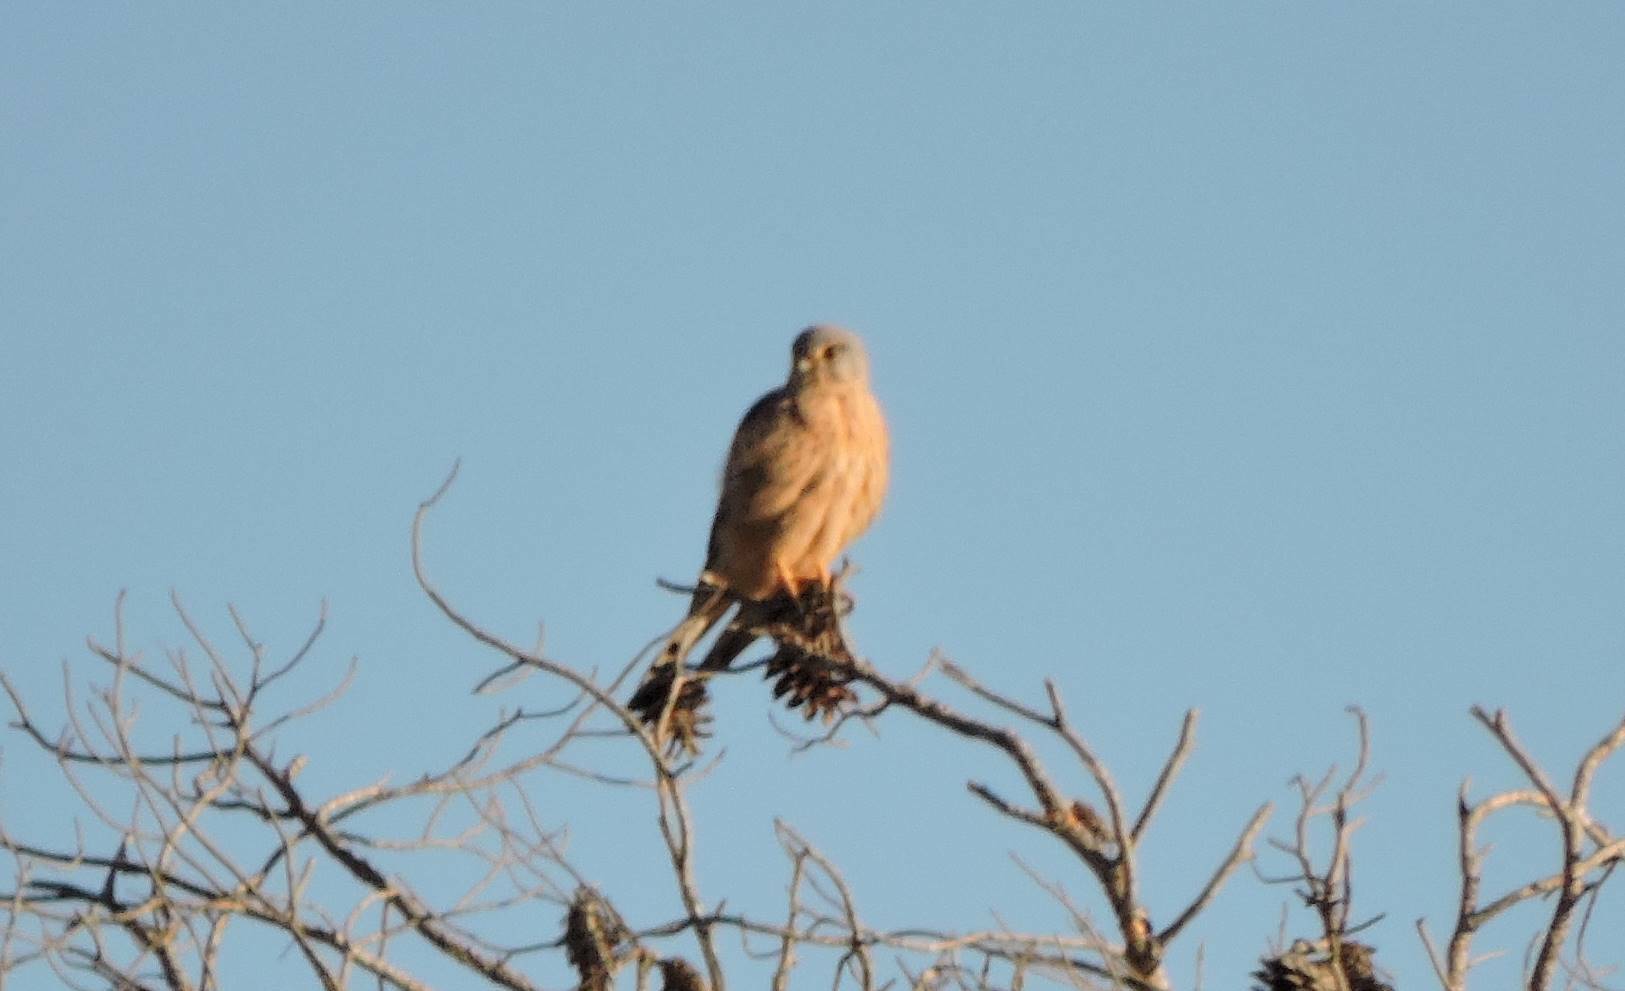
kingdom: Animalia
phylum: Chordata
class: Aves
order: Falconiformes
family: Falconidae
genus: Falco
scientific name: Falco tinnunculus
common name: Common kestrel
